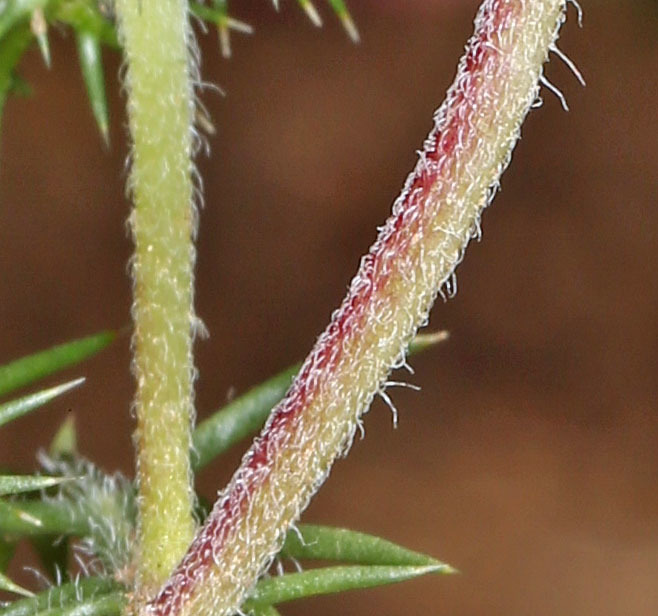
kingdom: Plantae
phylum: Tracheophyta
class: Magnoliopsida
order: Ericales
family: Polemoniaceae
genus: Navarretia
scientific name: Navarretia intertexta
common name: Needle-leaved navarretia
